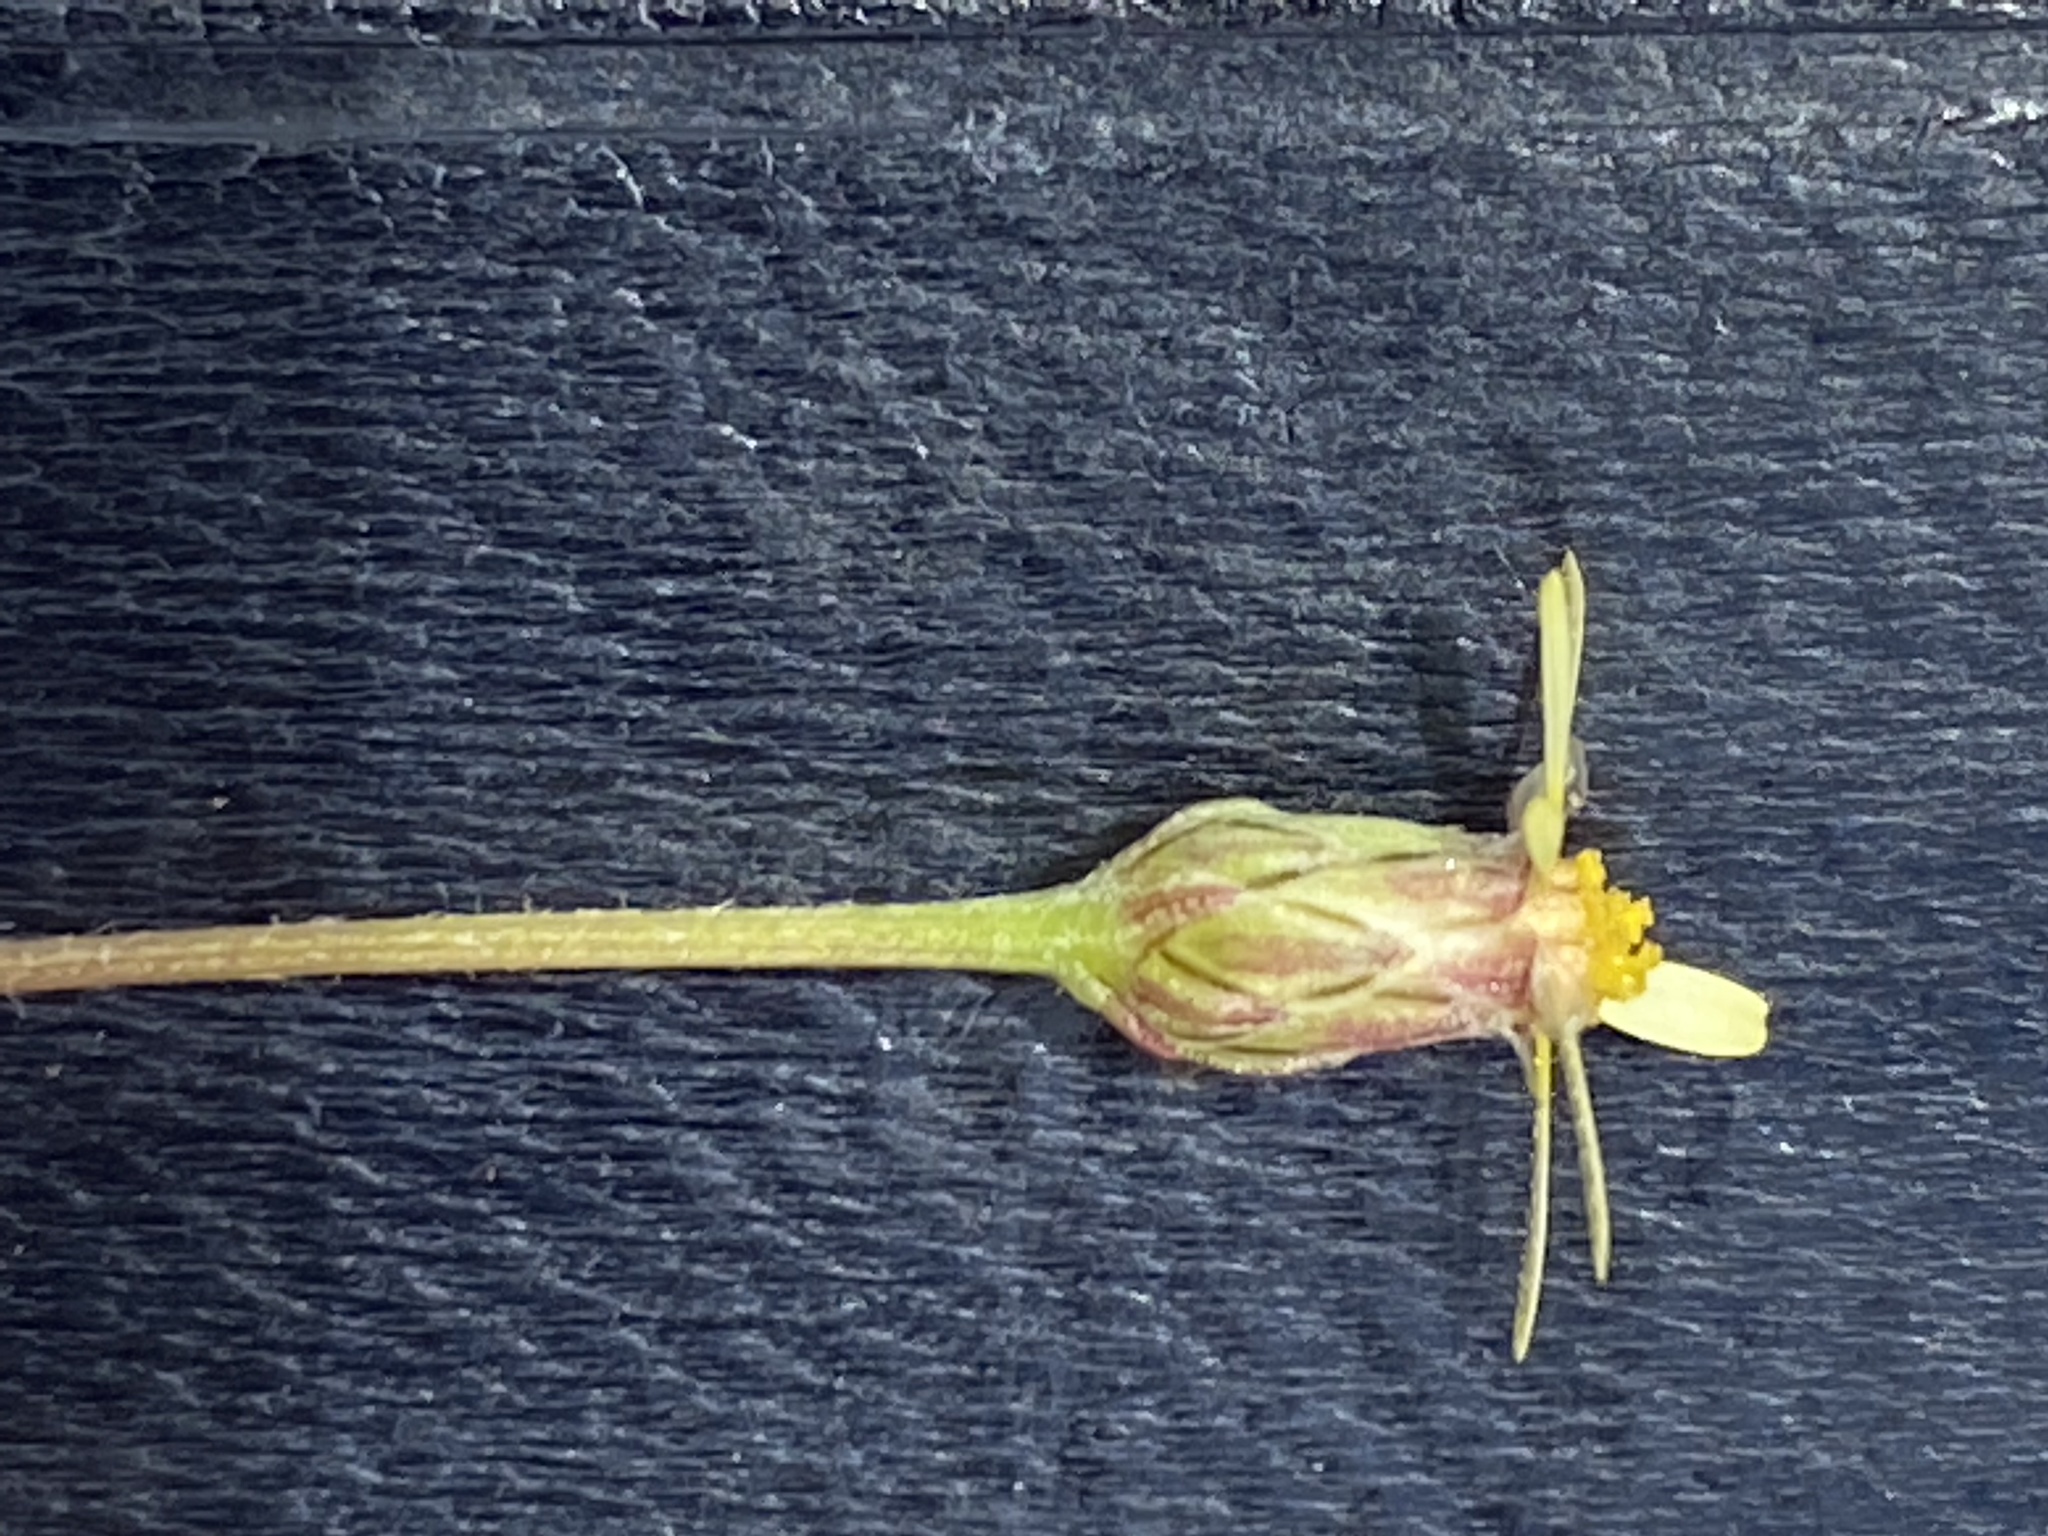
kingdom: Plantae
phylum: Tracheophyta
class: Magnoliopsida
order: Asterales
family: Asteraceae
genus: Ursinia
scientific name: Ursinia anthemoides
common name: Ursinia
